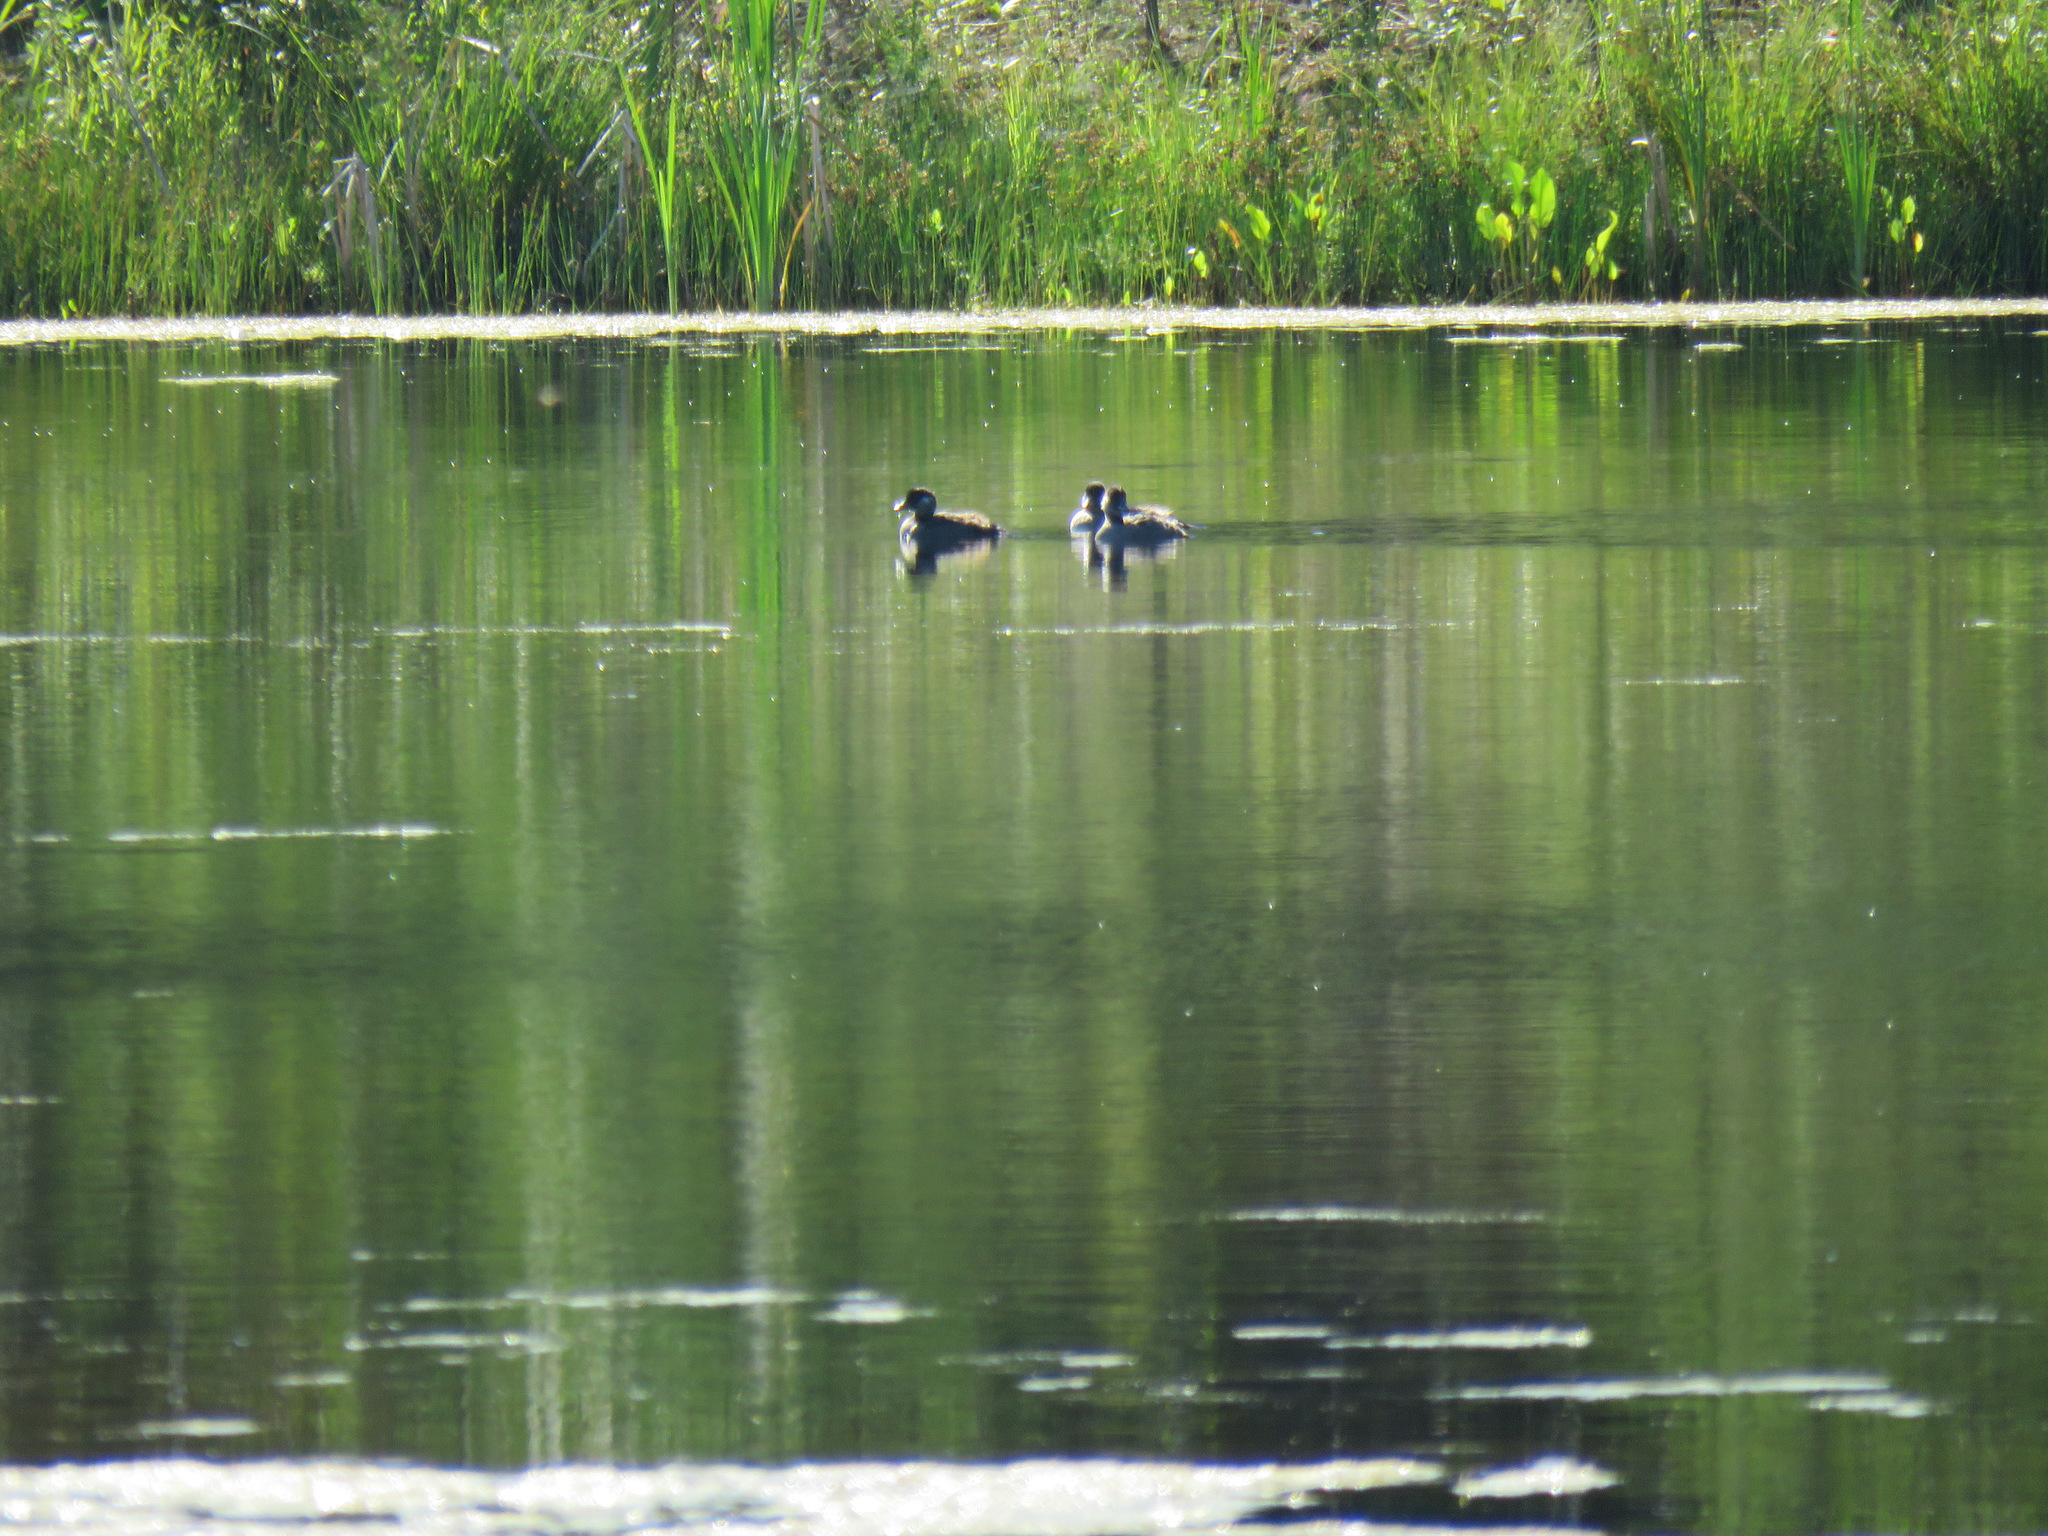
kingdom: Animalia
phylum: Chordata
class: Aves
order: Anseriformes
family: Anatidae
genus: Bucephala
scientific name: Bucephala albeola
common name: Bufflehead
